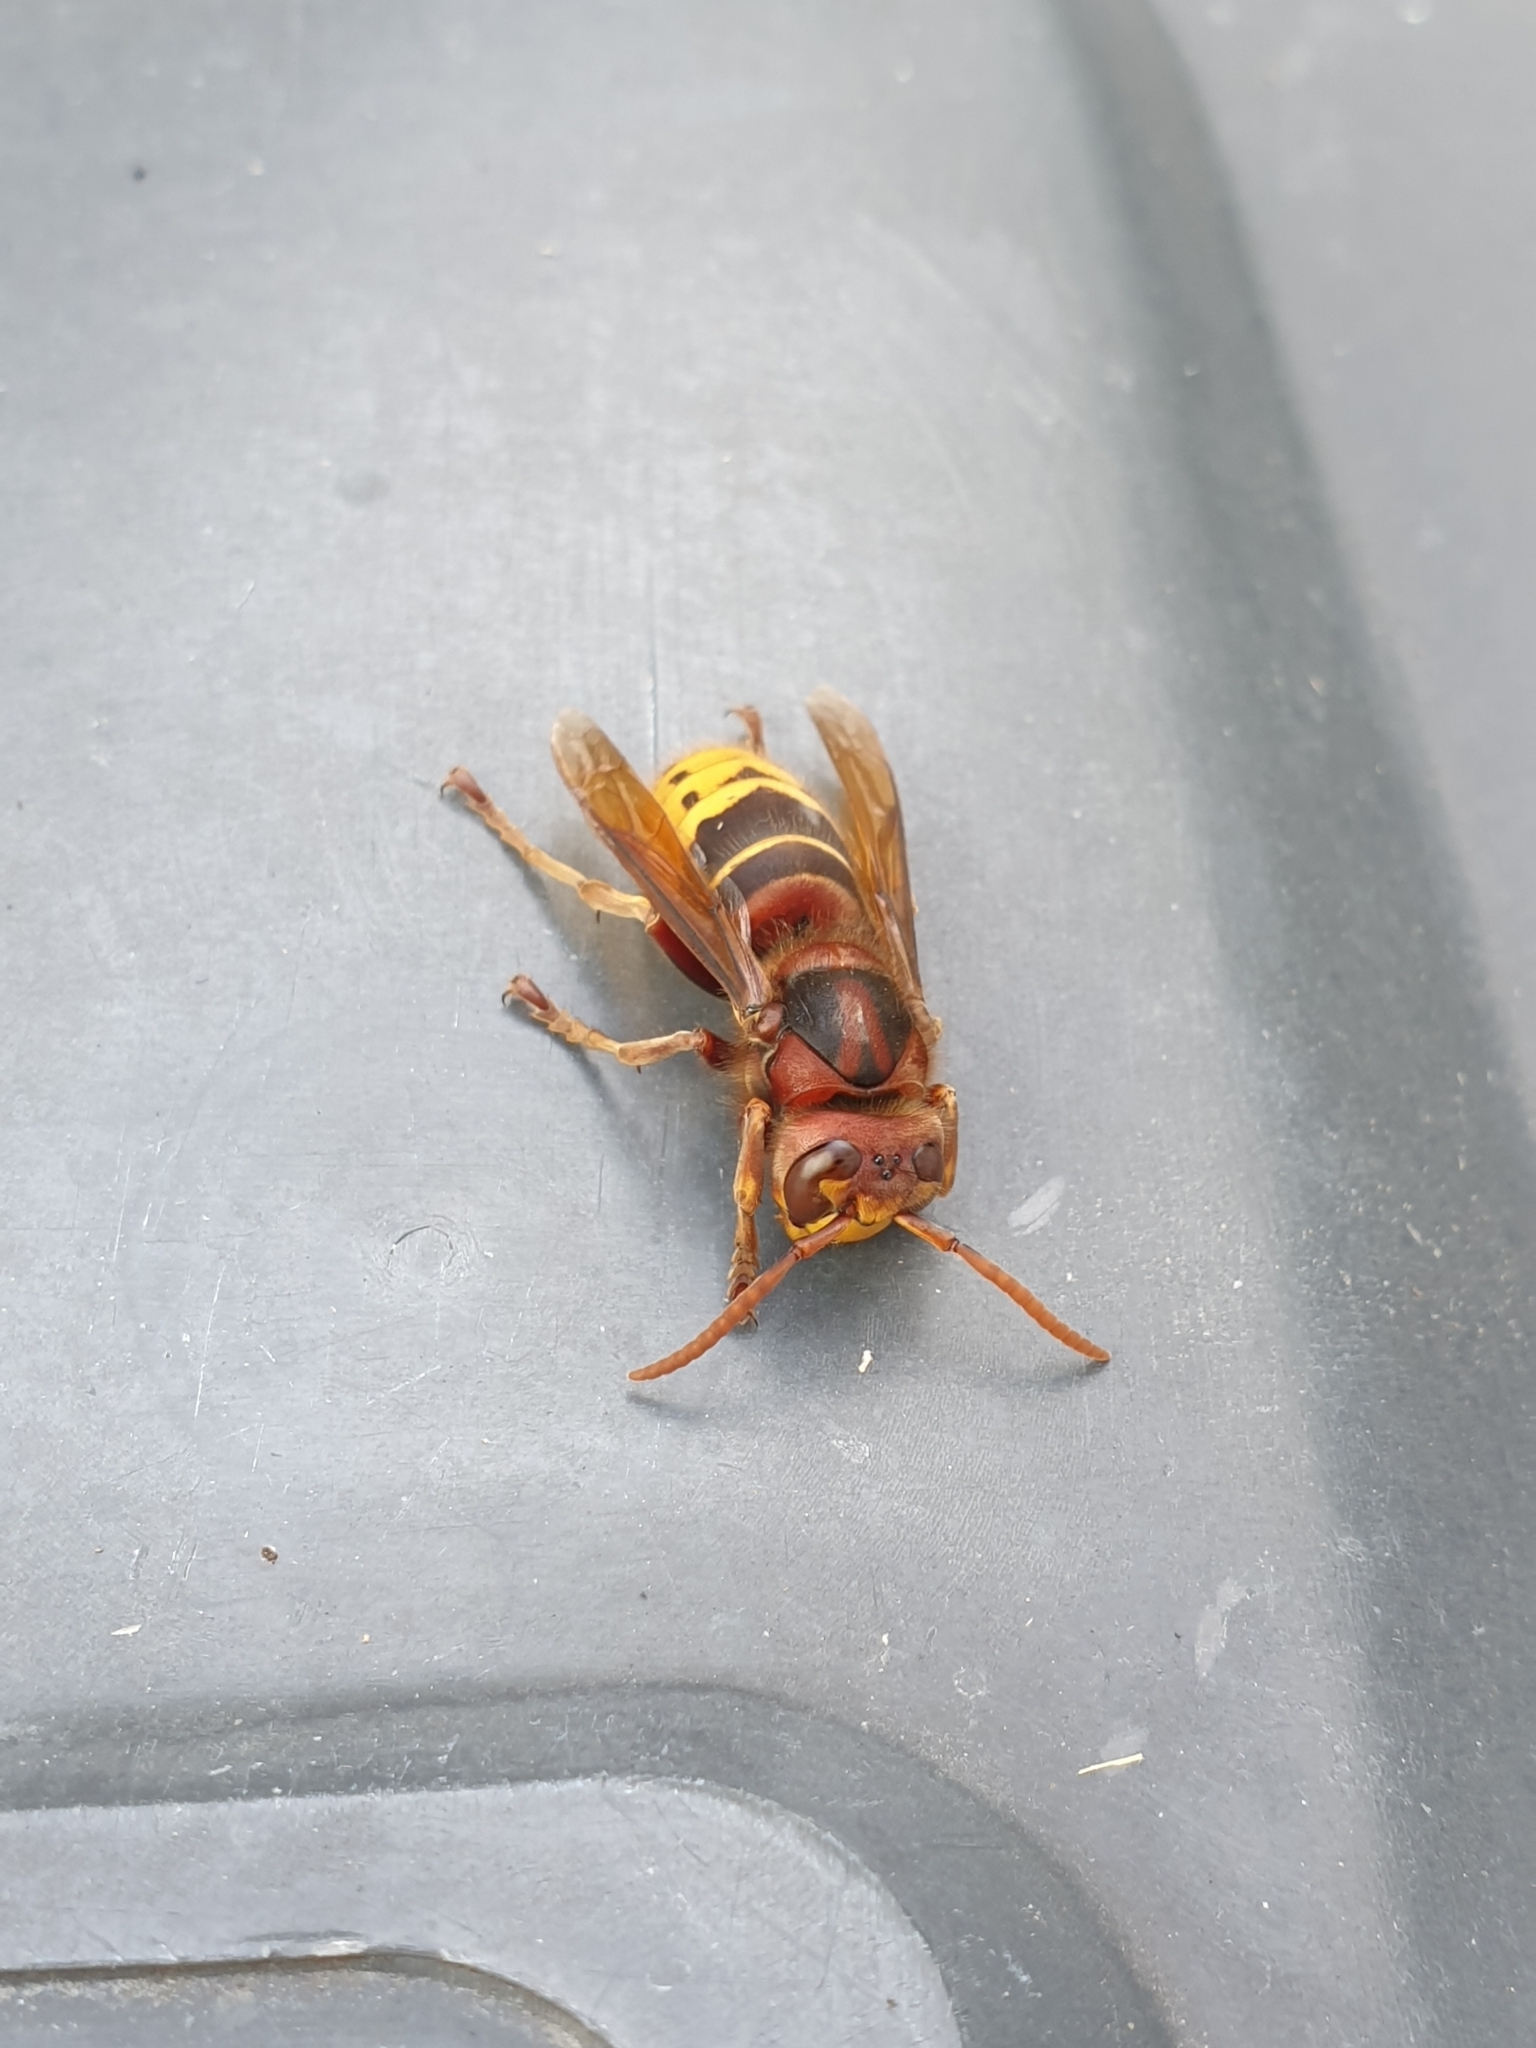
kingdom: Animalia
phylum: Arthropoda
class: Insecta
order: Hymenoptera
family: Vespidae
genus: Vespa
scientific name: Vespa crabro
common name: Hornet
